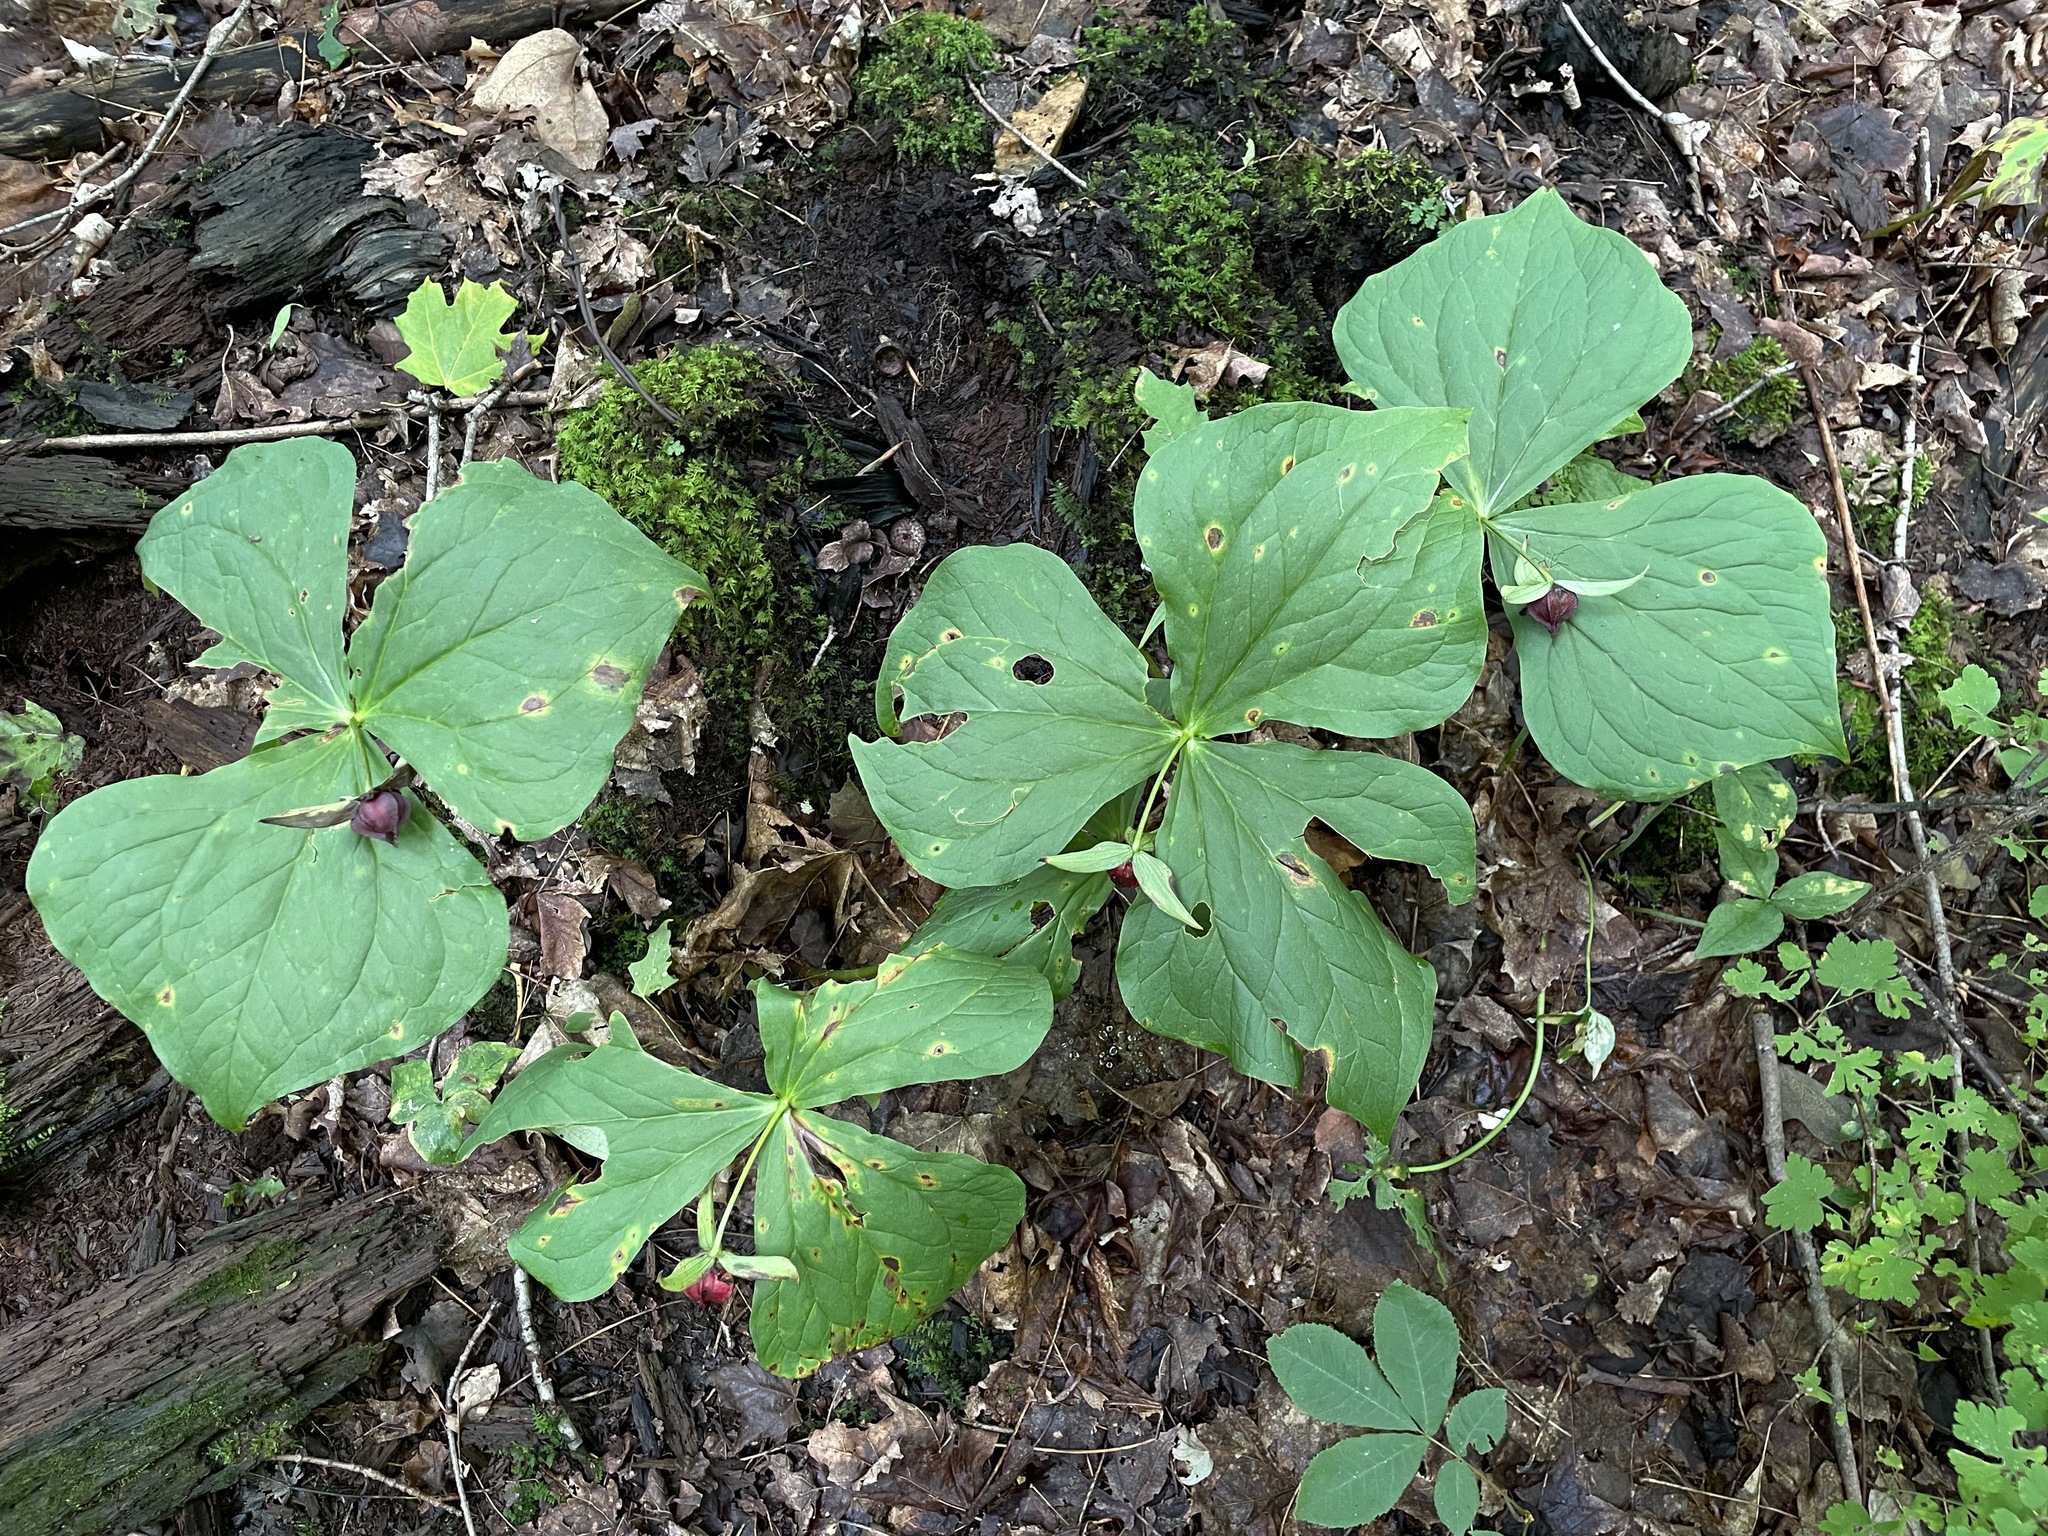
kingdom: Plantae
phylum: Tracheophyta
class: Liliopsida
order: Liliales
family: Melanthiaceae
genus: Trillium
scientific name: Trillium erectum
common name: Purple trillium
